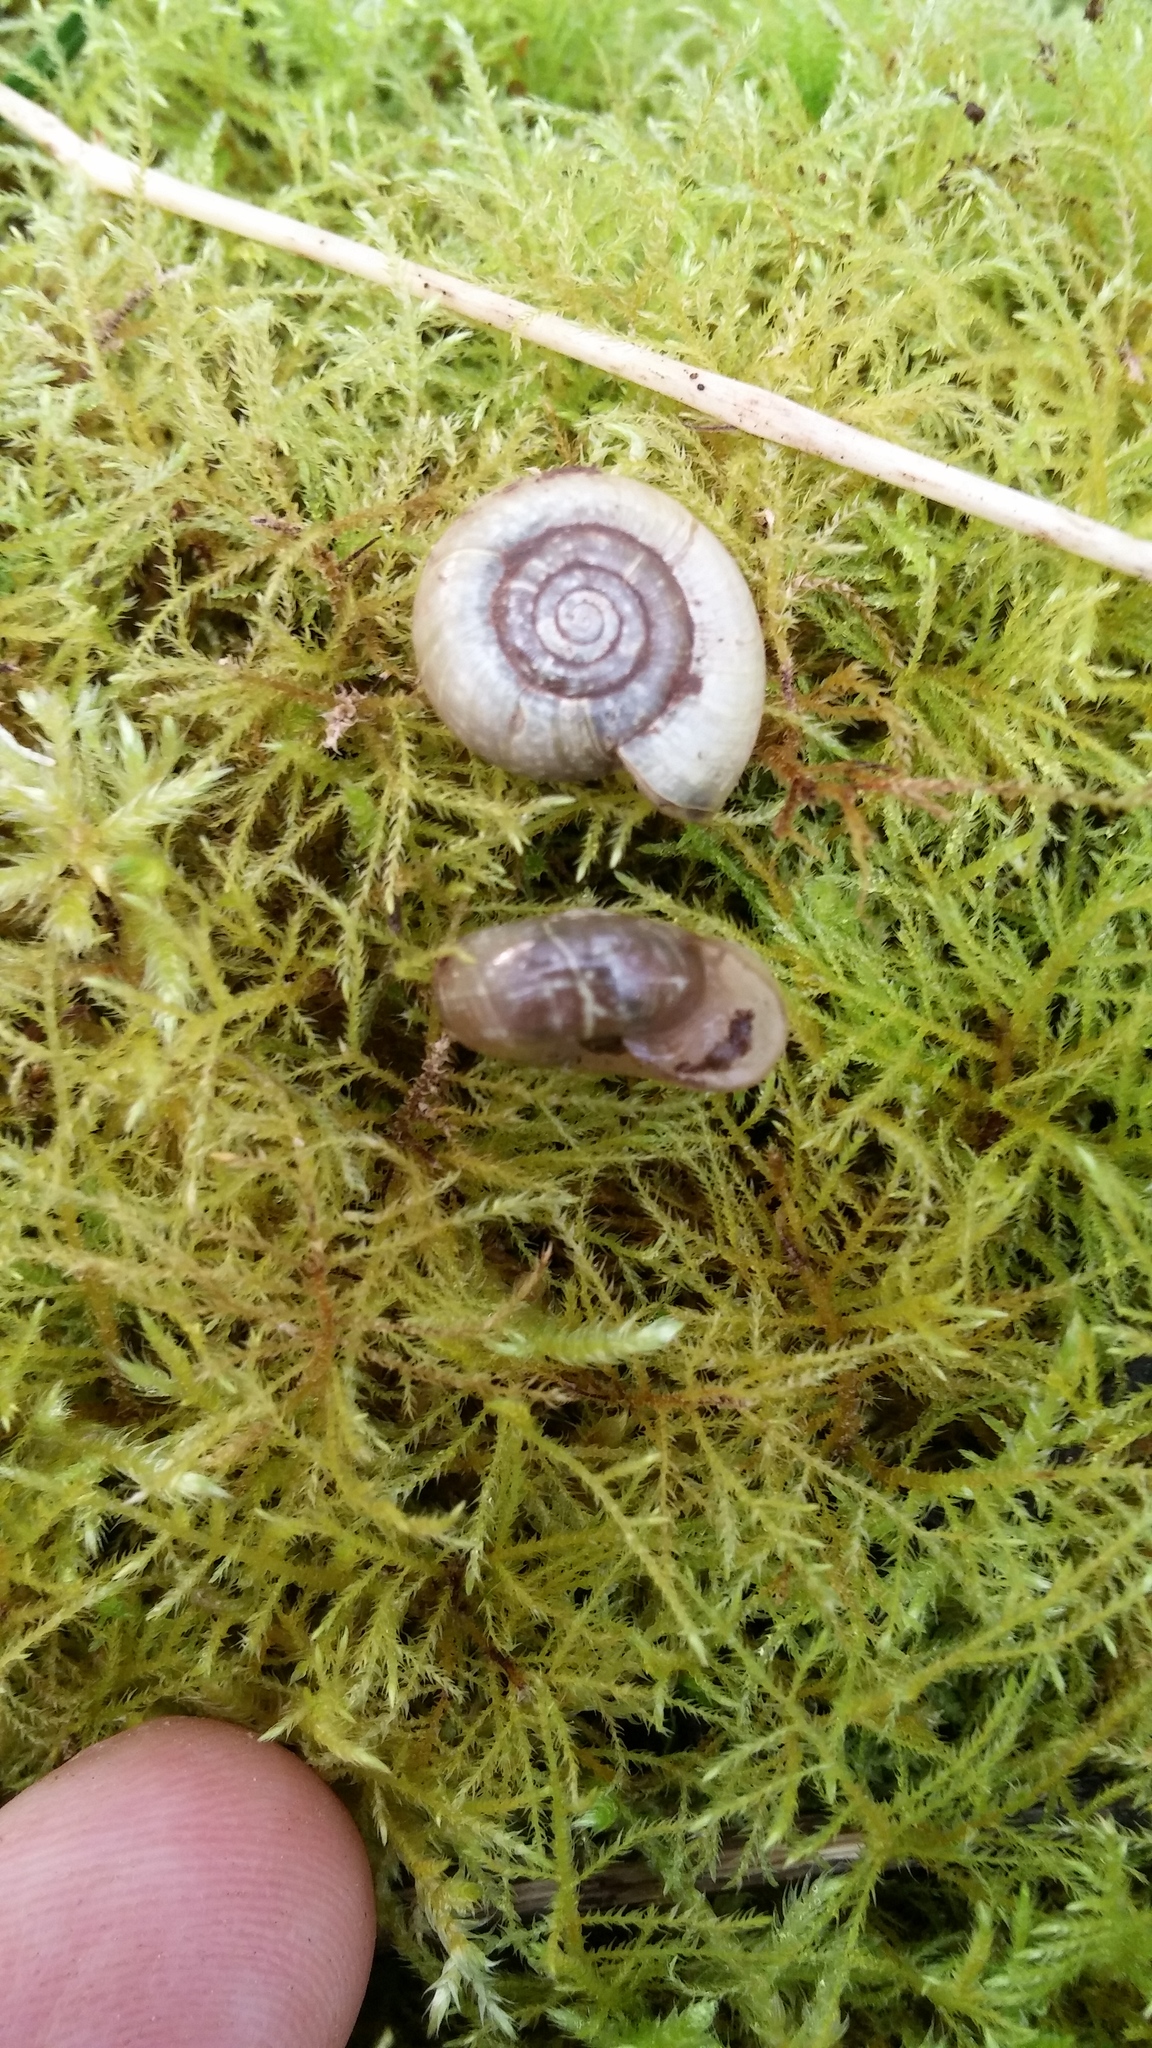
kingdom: Animalia
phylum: Mollusca
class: Gastropoda
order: Stylommatophora
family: Megomphicidae
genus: Megomphix
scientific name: Megomphix hemphilli
